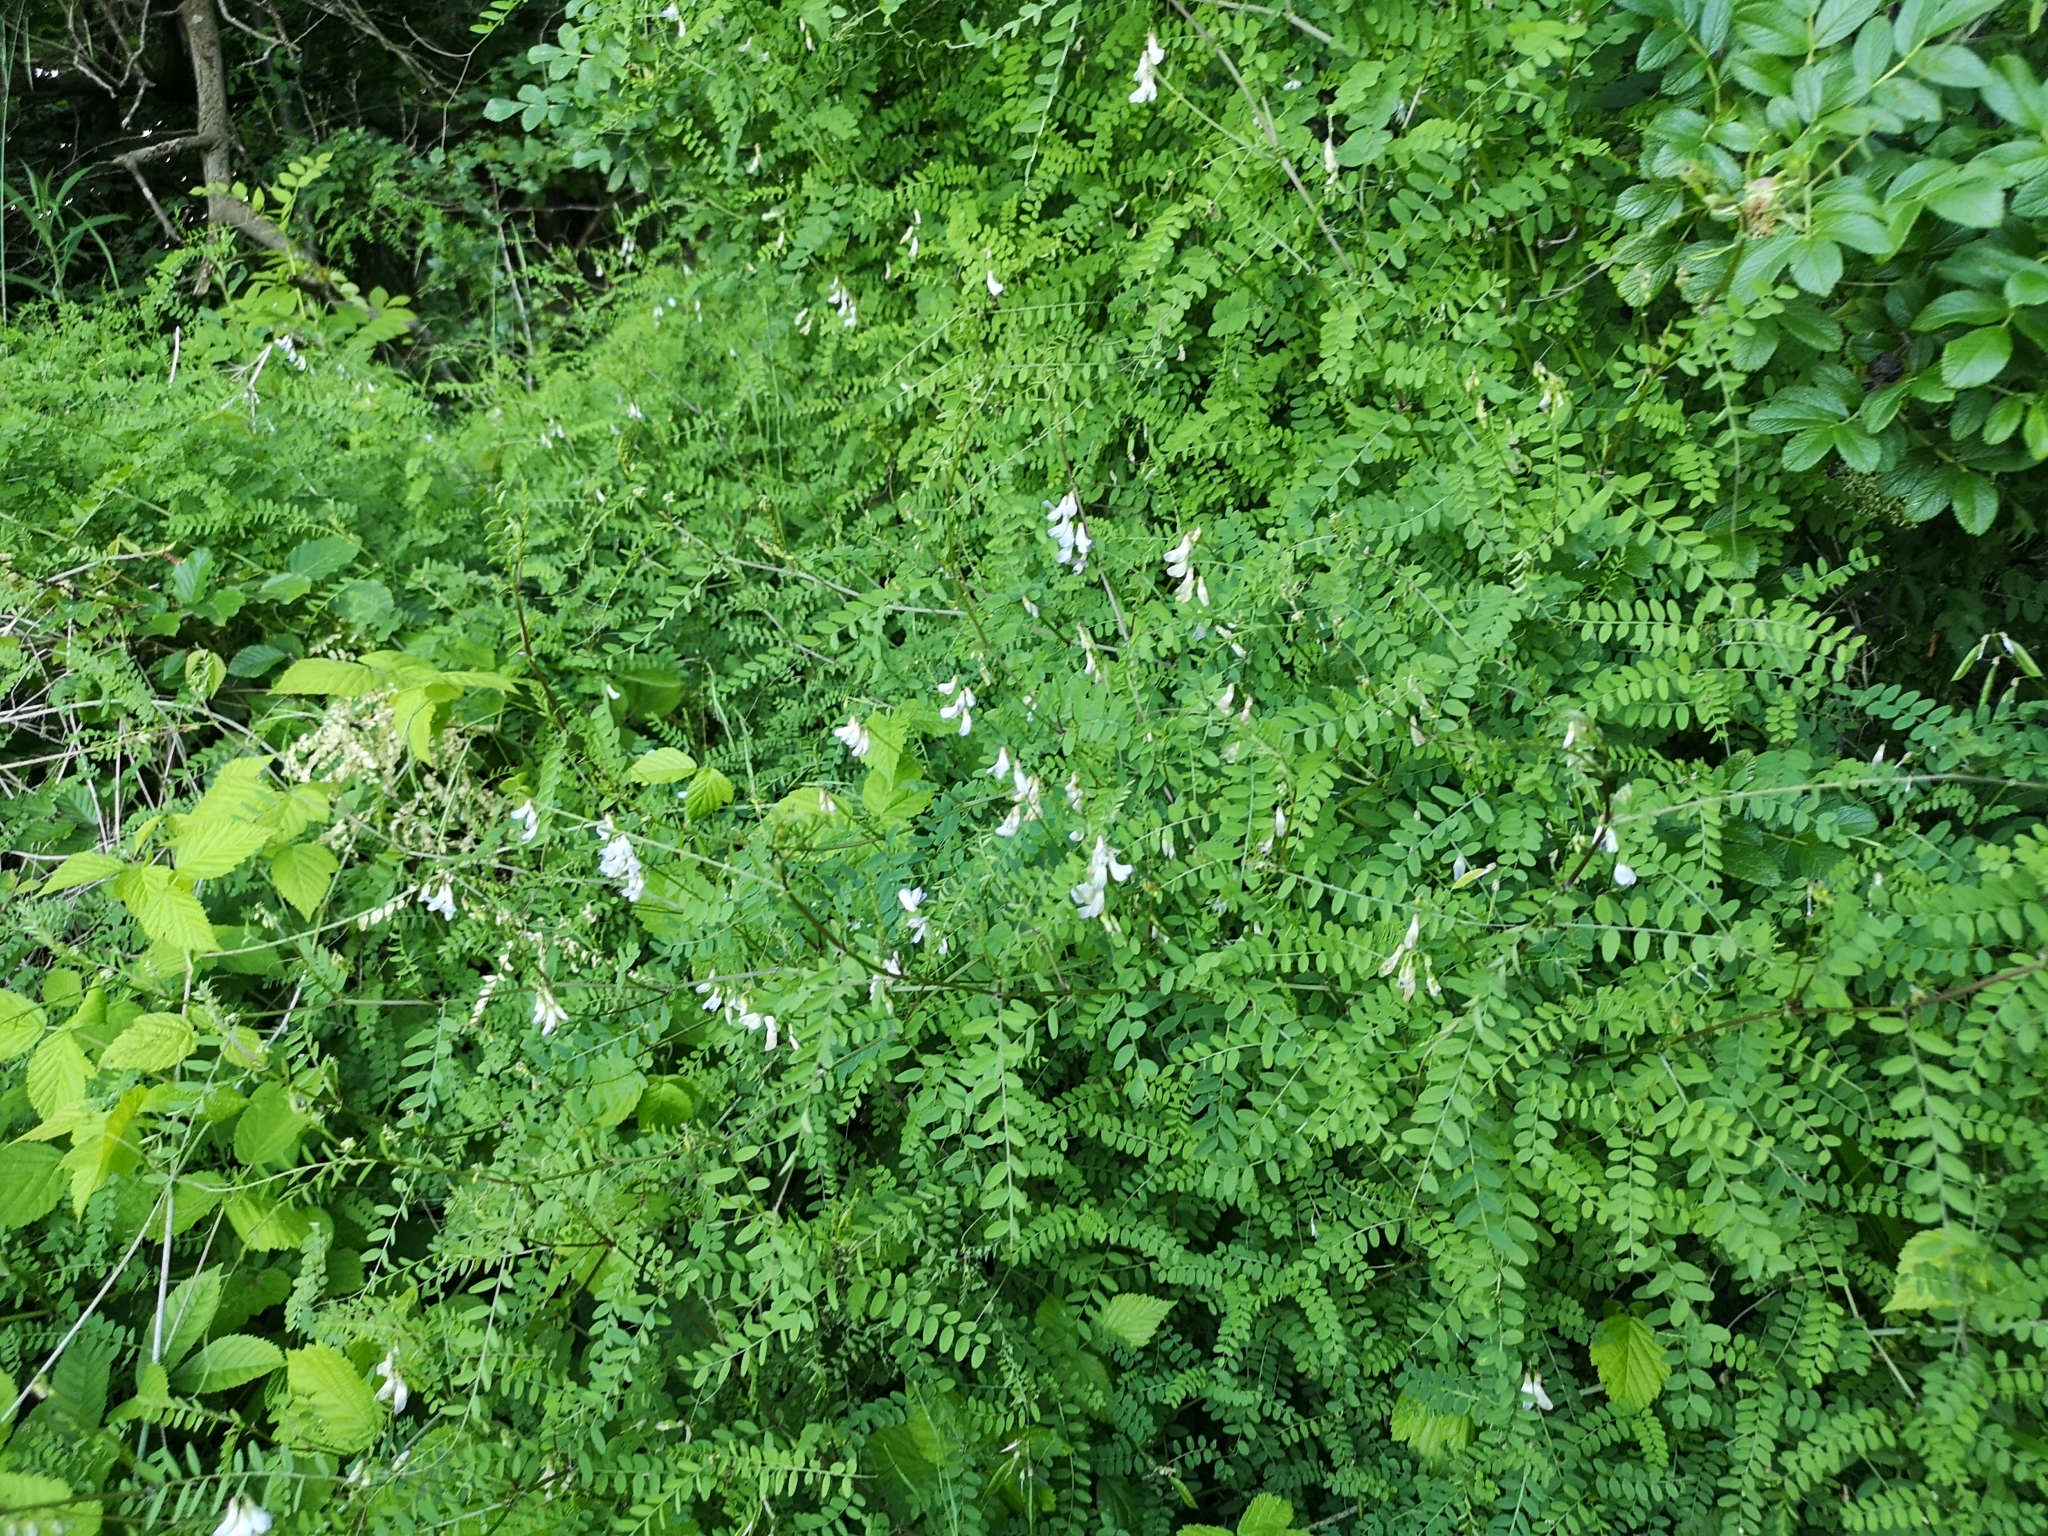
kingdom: Plantae
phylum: Tracheophyta
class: Magnoliopsida
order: Fabales
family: Fabaceae
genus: Vicia
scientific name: Vicia sylvatica
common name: Wood vetch
